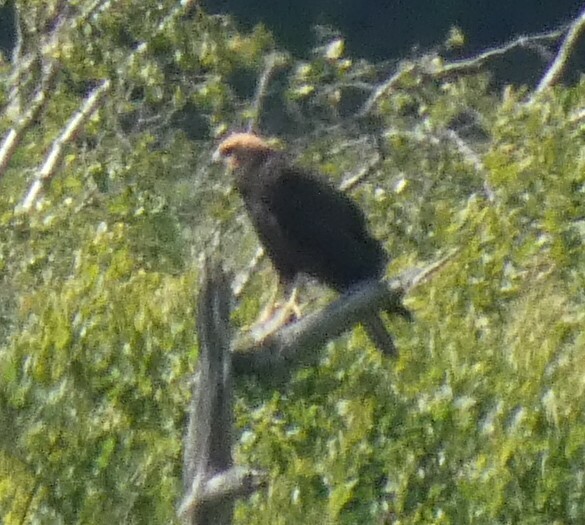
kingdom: Animalia
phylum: Chordata
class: Aves
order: Accipitriformes
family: Accipitridae
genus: Circus
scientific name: Circus aeruginosus
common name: Western marsh harrier
